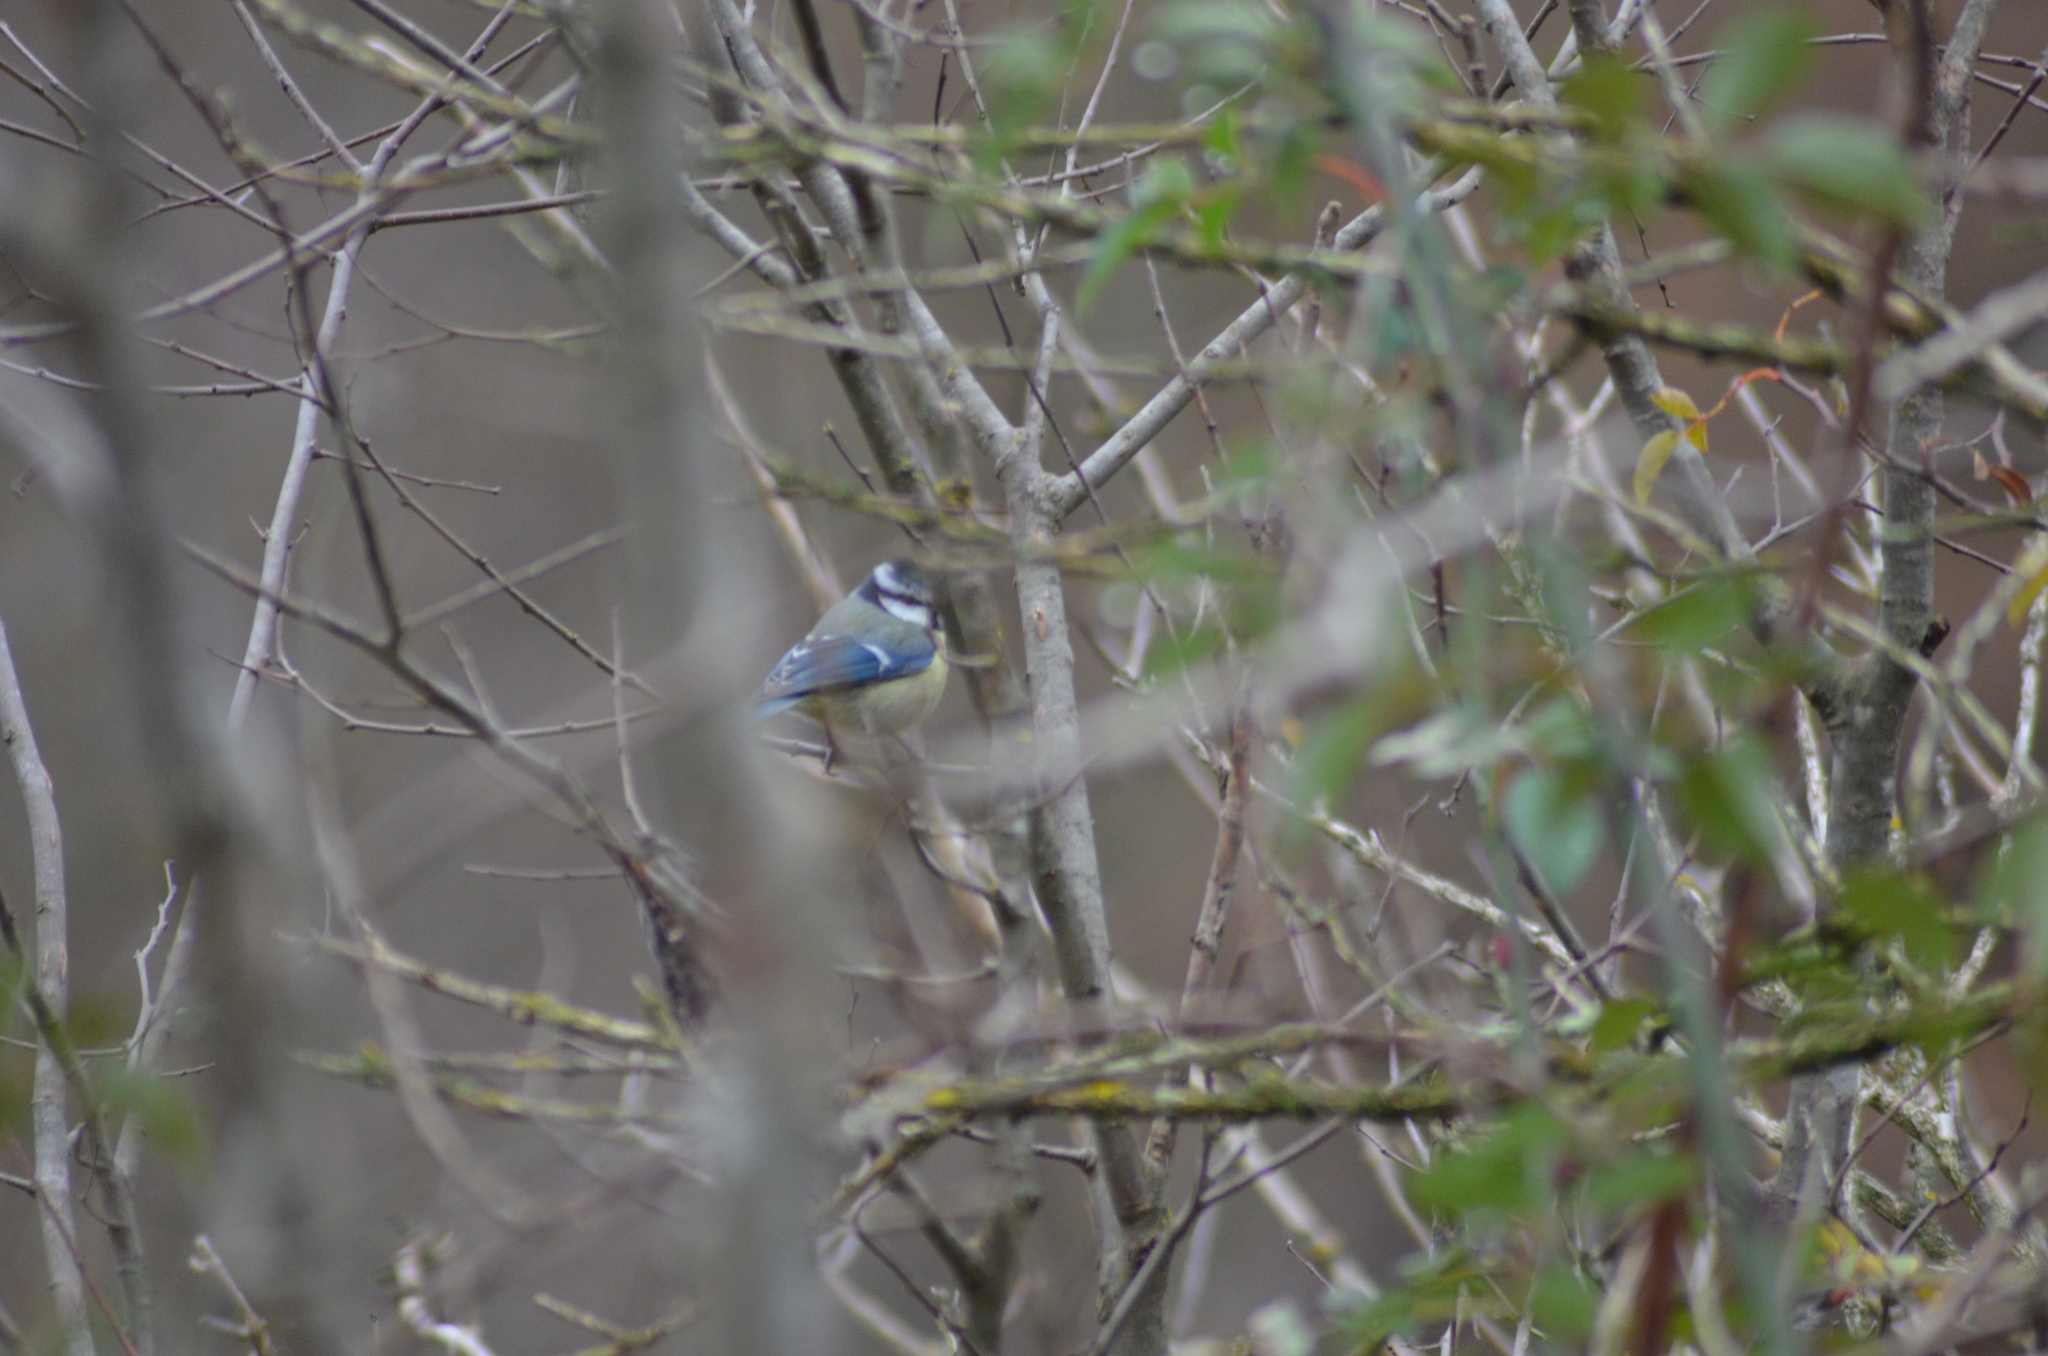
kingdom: Animalia
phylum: Chordata
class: Aves
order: Passeriformes
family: Paridae
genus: Cyanistes
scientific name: Cyanistes caeruleus
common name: Eurasian blue tit
